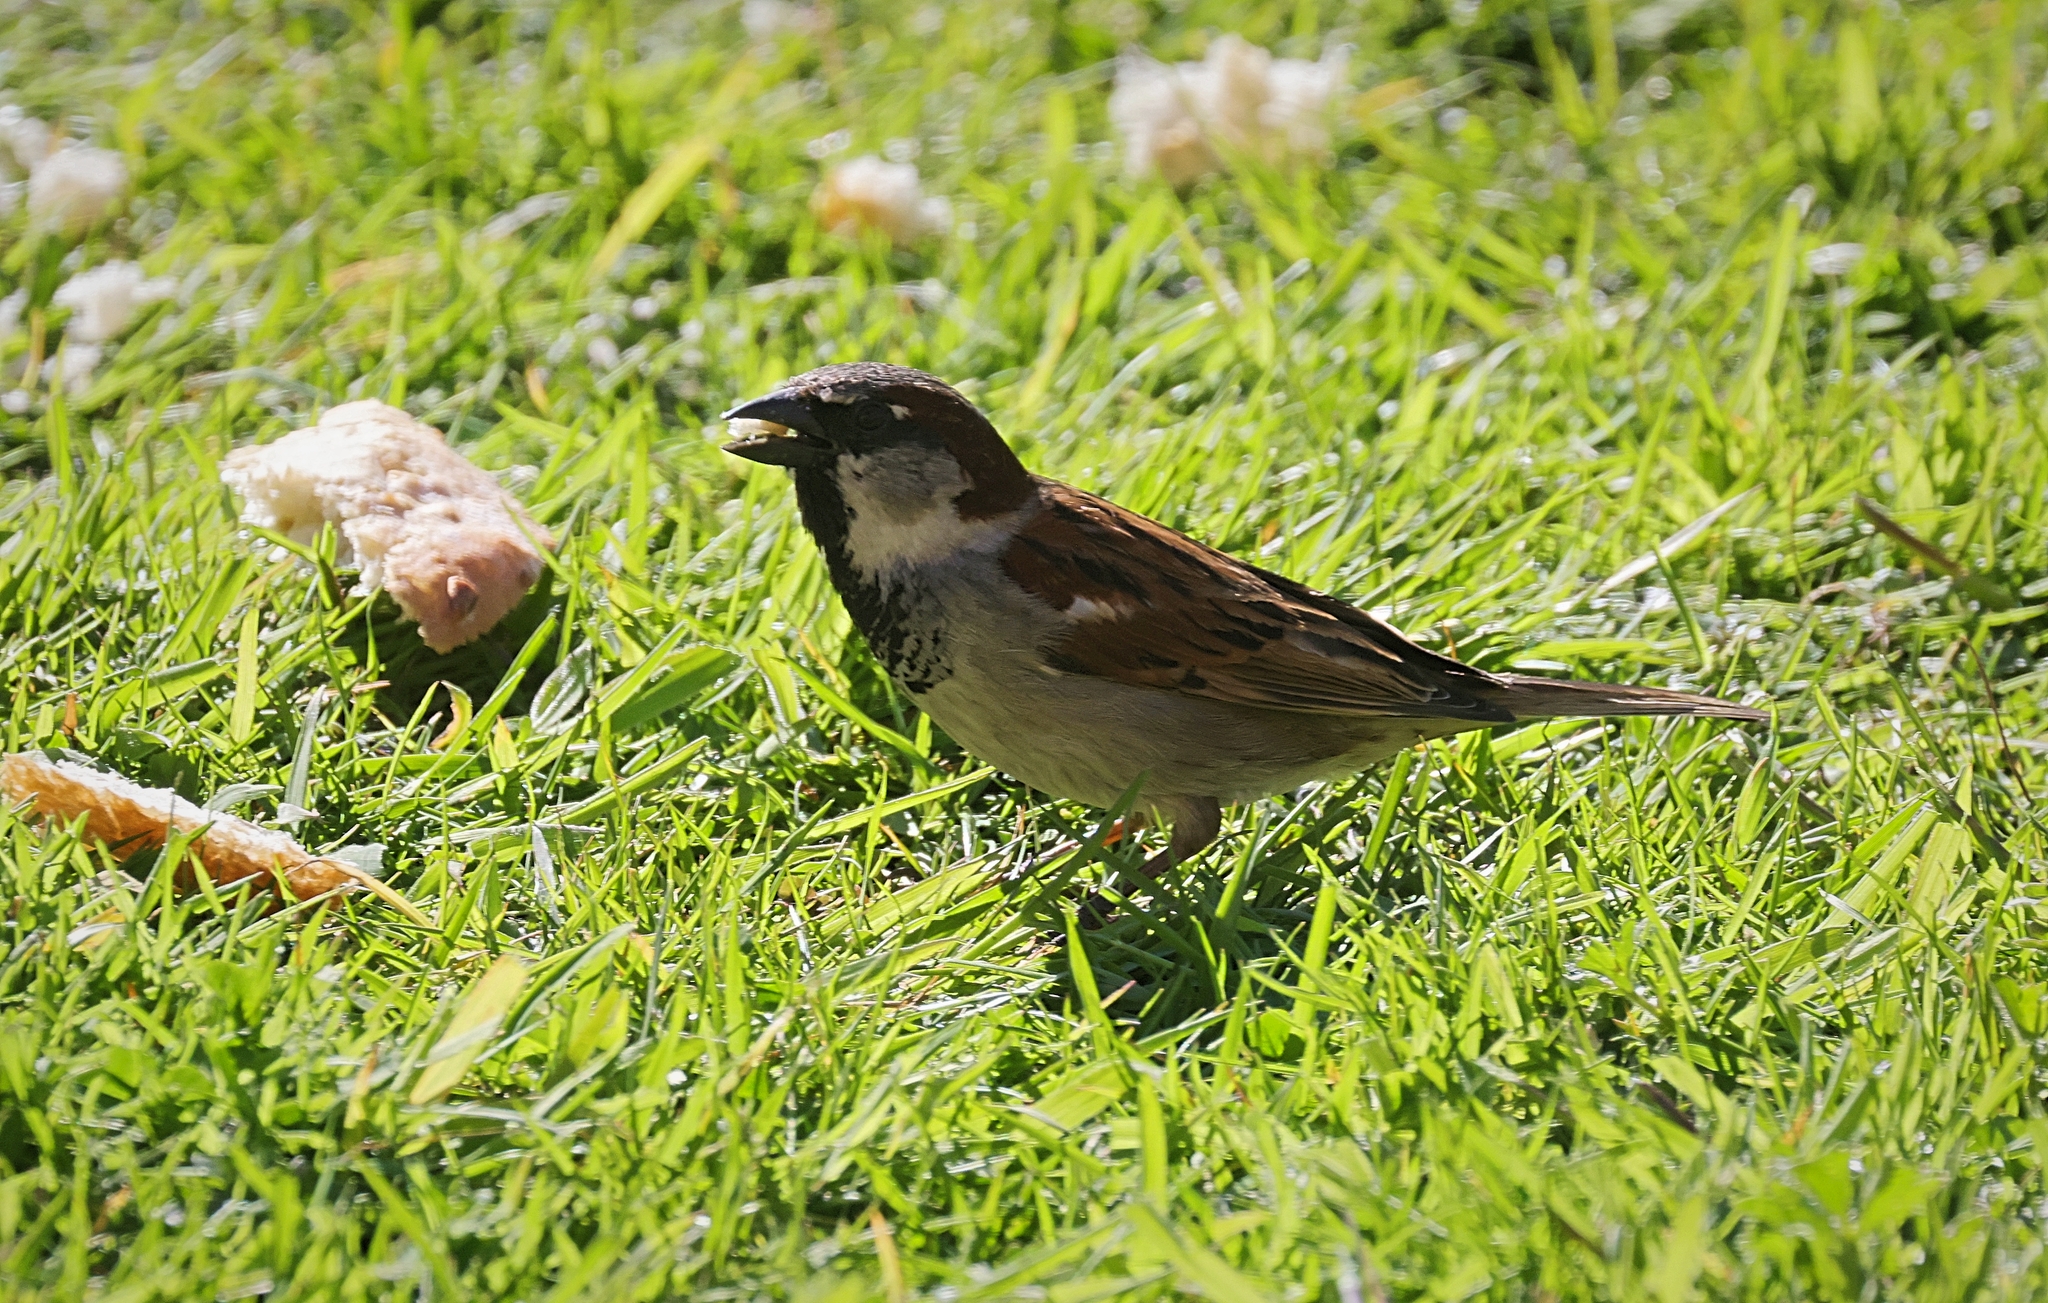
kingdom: Animalia
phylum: Chordata
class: Aves
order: Passeriformes
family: Passeridae
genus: Passer
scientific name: Passer domesticus
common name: House sparrow
